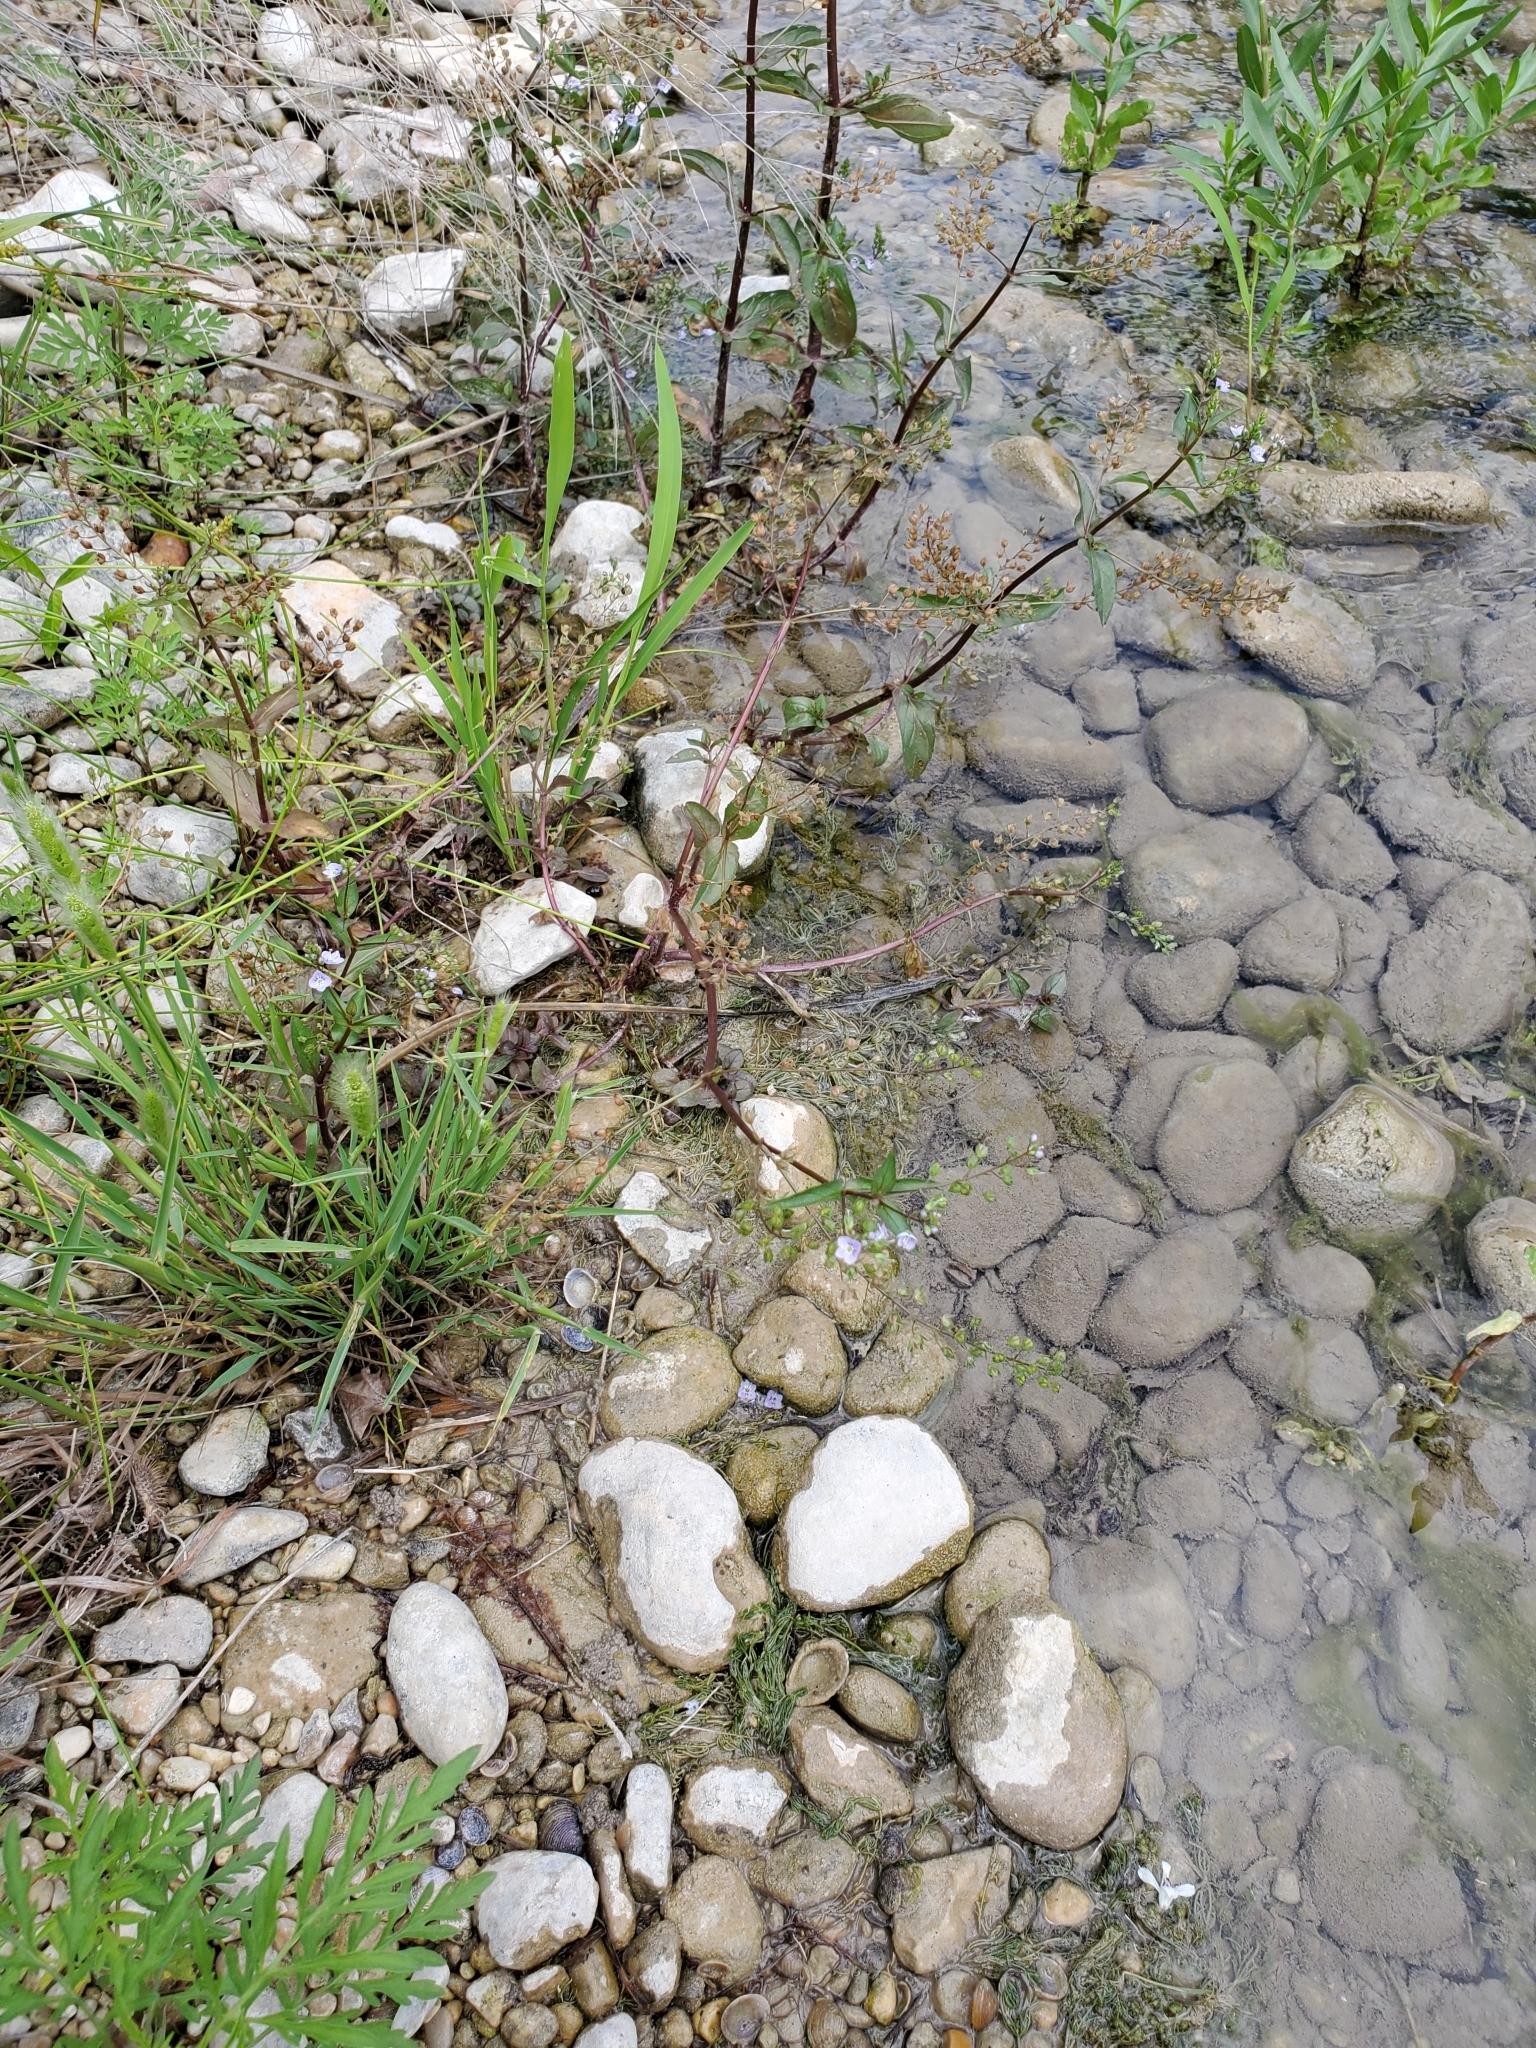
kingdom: Plantae
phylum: Tracheophyta
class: Magnoliopsida
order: Lamiales
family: Plantaginaceae
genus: Veronica
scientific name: Veronica anagallis-aquatica
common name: Water speedwell
